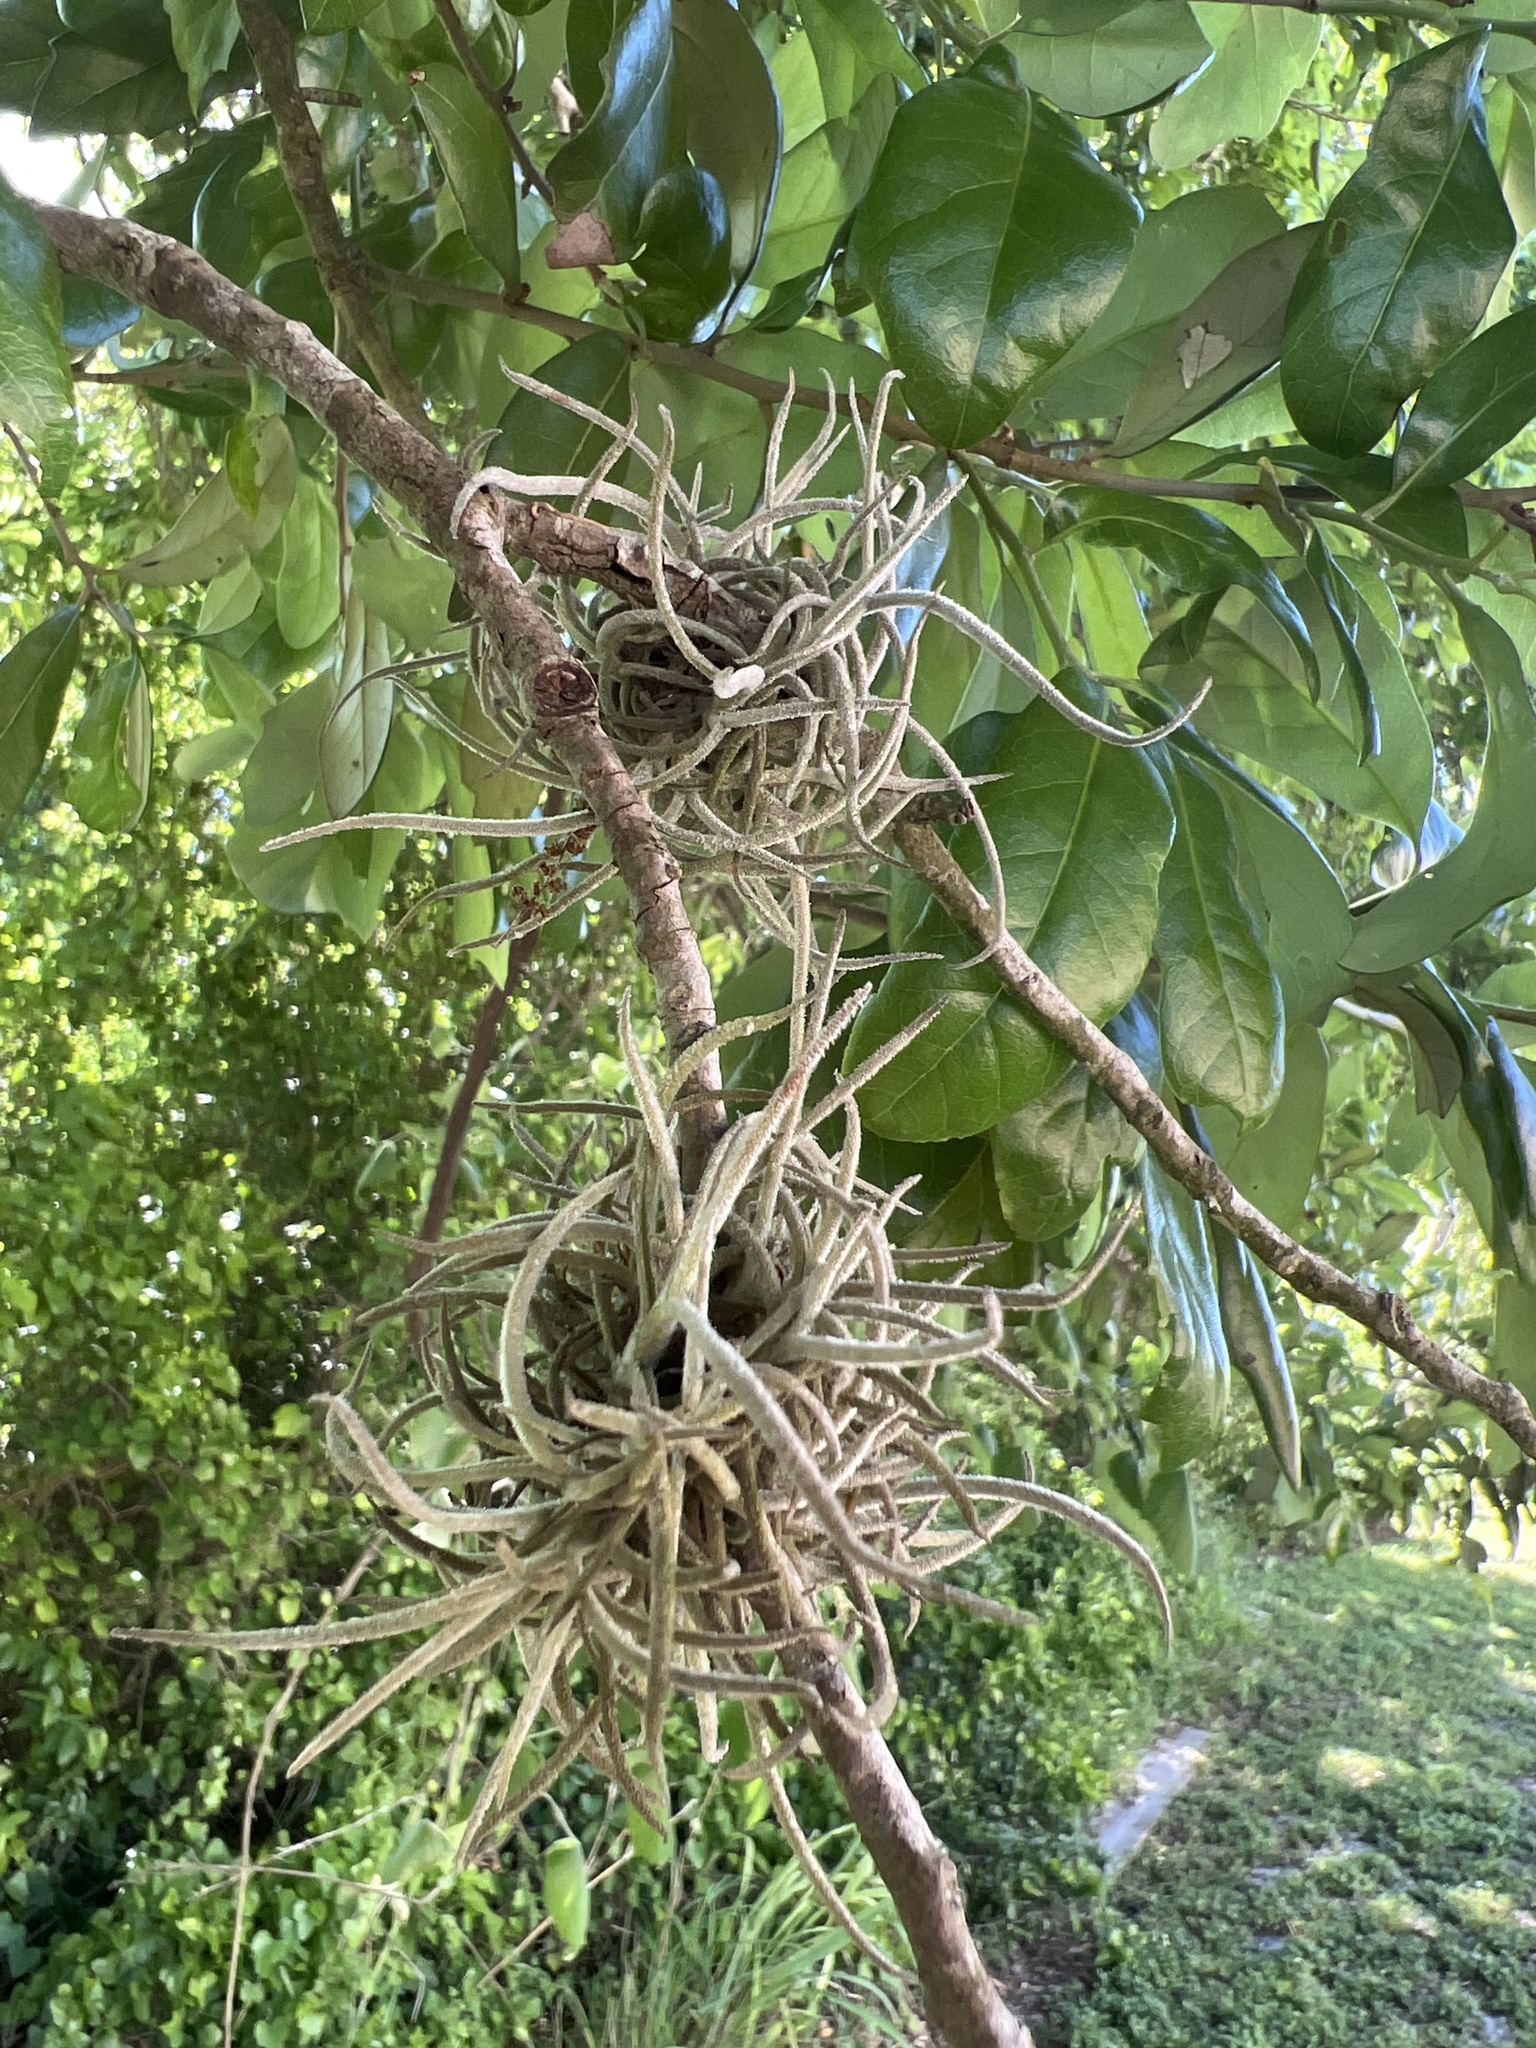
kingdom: Plantae
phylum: Tracheophyta
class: Liliopsida
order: Poales
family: Bromeliaceae
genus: Tillandsia
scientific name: Tillandsia recurvata
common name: Small ballmoss
